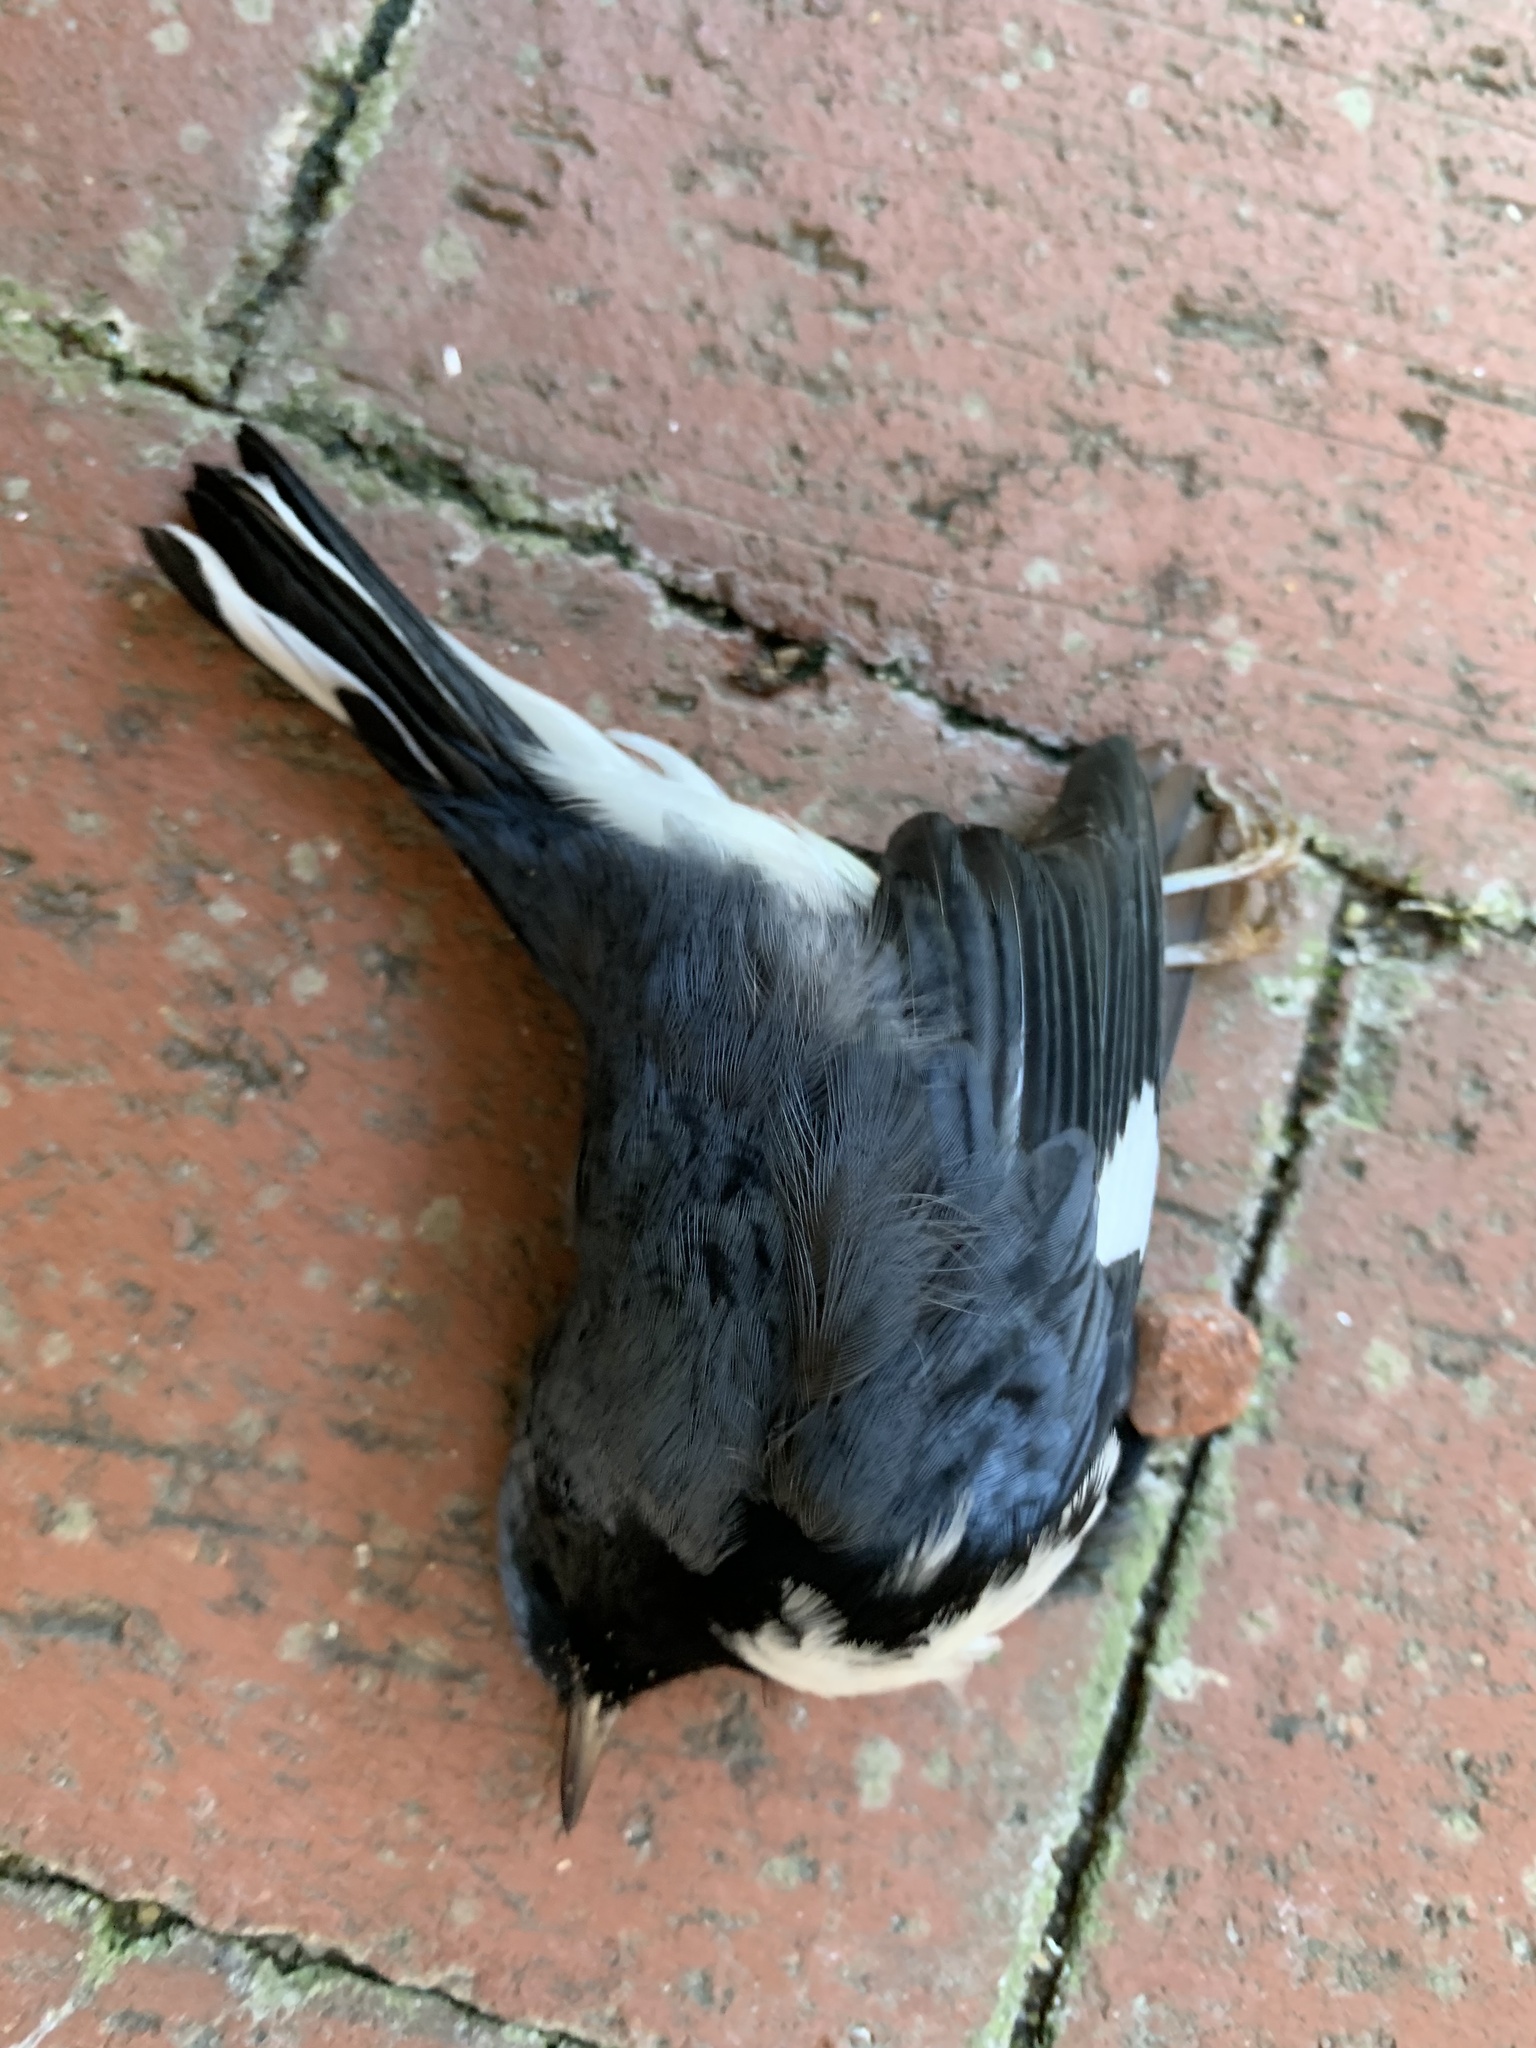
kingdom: Animalia
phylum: Chordata
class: Aves
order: Passeriformes
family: Parulidae
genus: Setophaga
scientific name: Setophaga caerulescens
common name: Black-throated blue warbler
